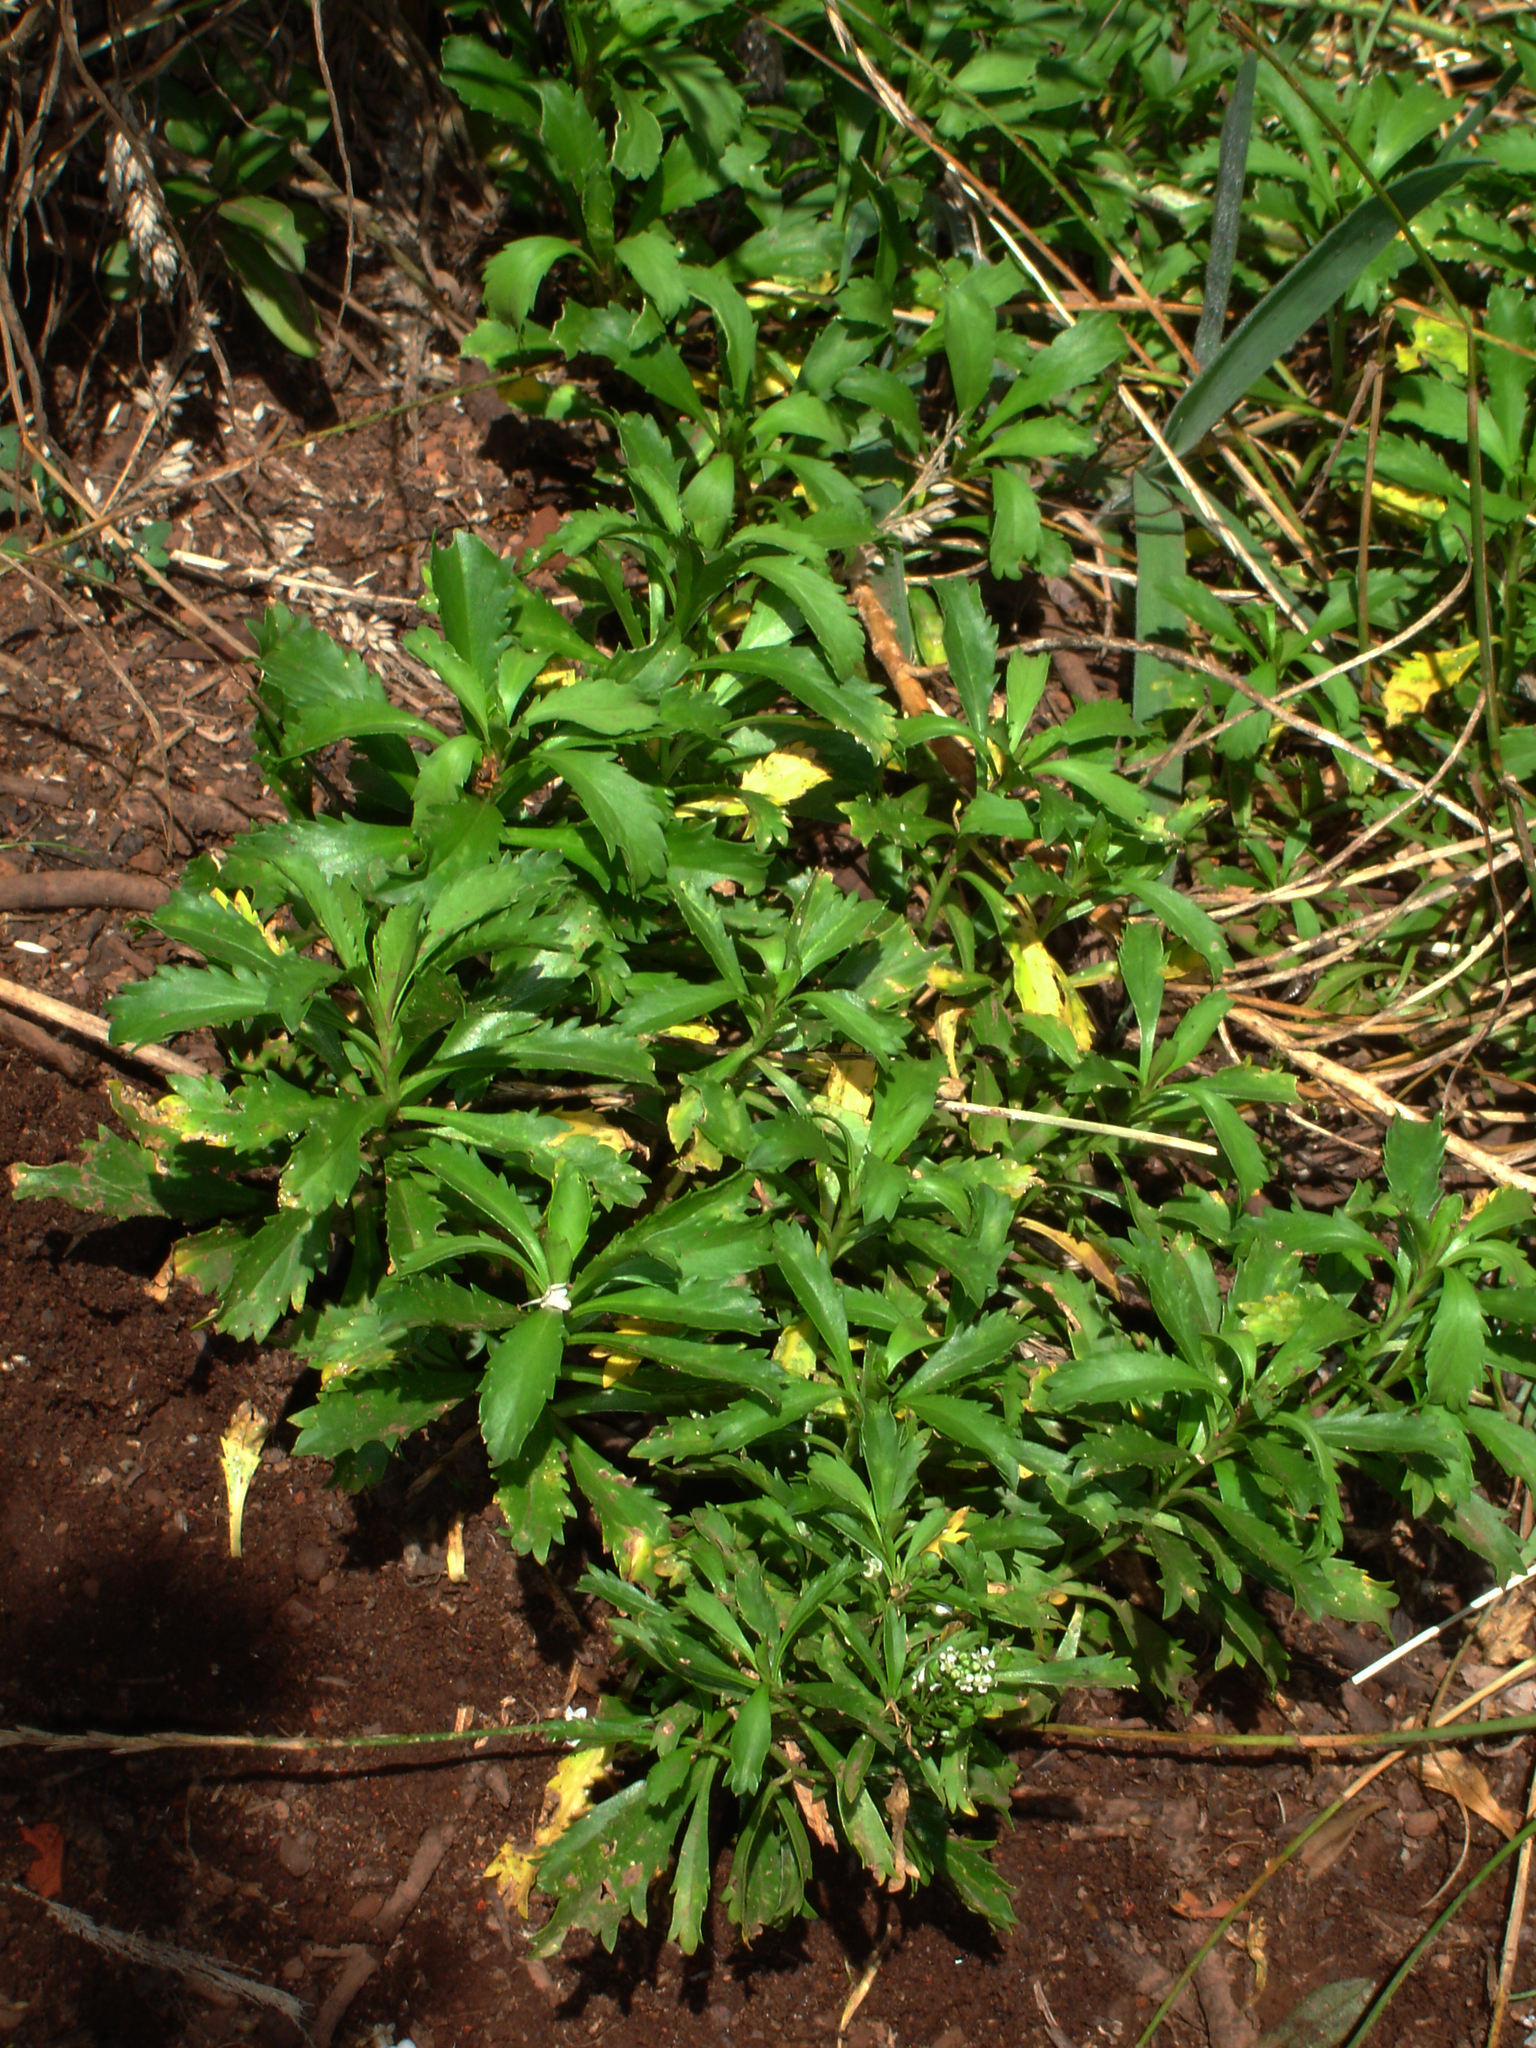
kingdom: Plantae
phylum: Tracheophyta
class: Magnoliopsida
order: Brassicales
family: Brassicaceae
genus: Lepidium
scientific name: Lepidium panniforme
